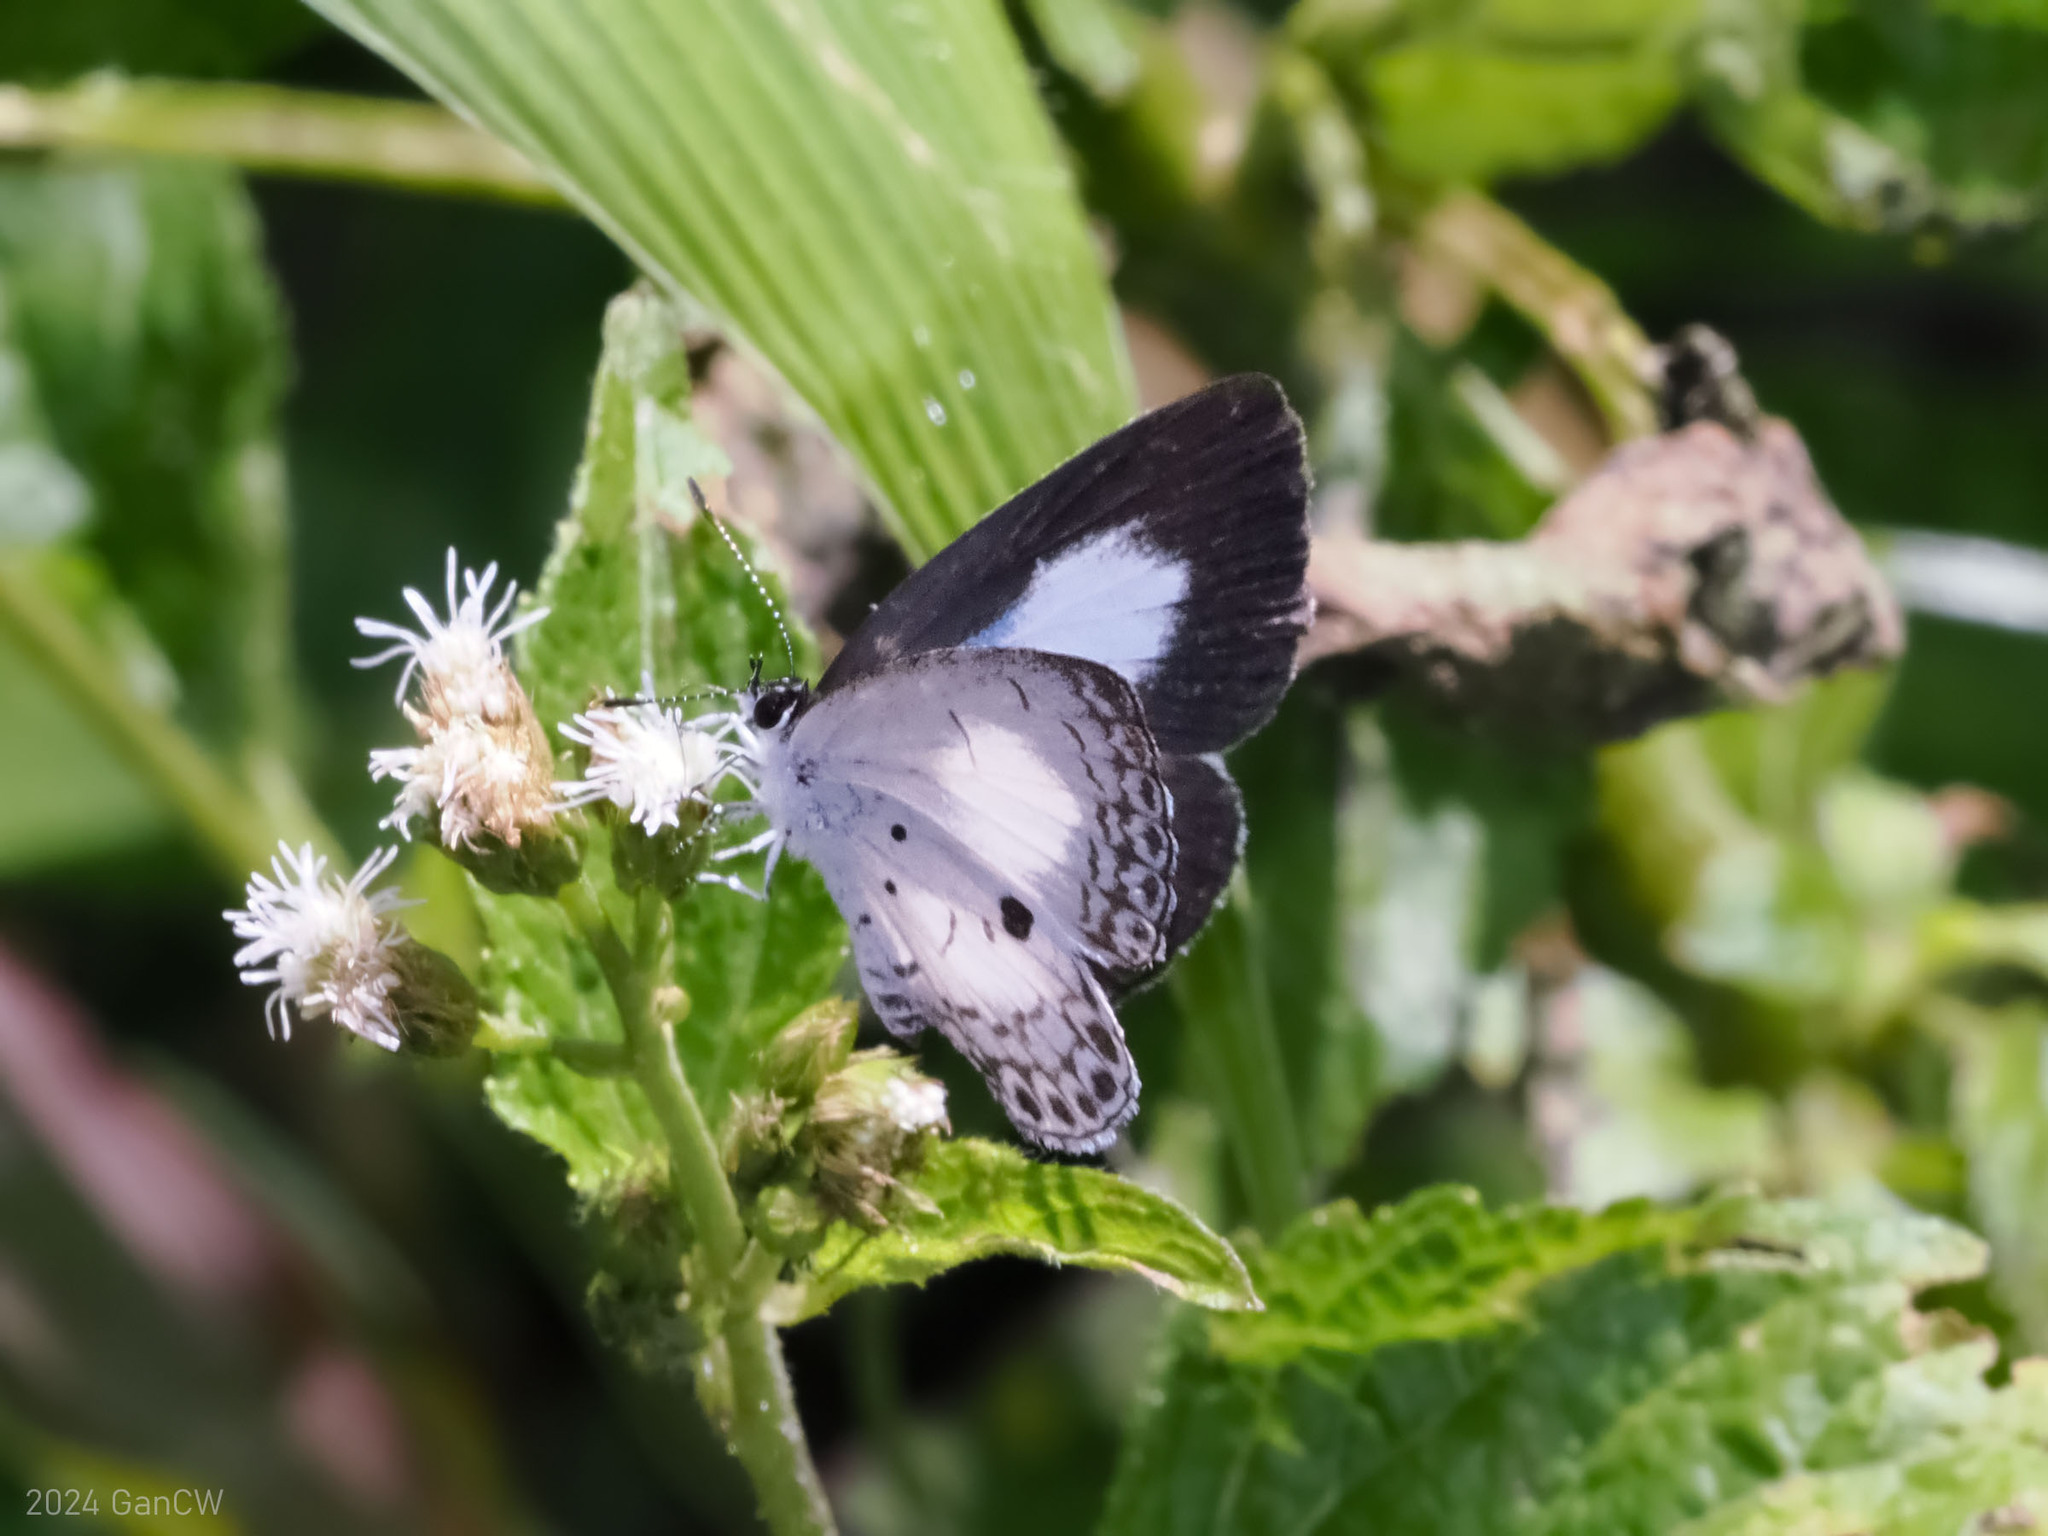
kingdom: Animalia
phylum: Arthropoda
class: Insecta
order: Lepidoptera
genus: Sancterila
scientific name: Sancterila
